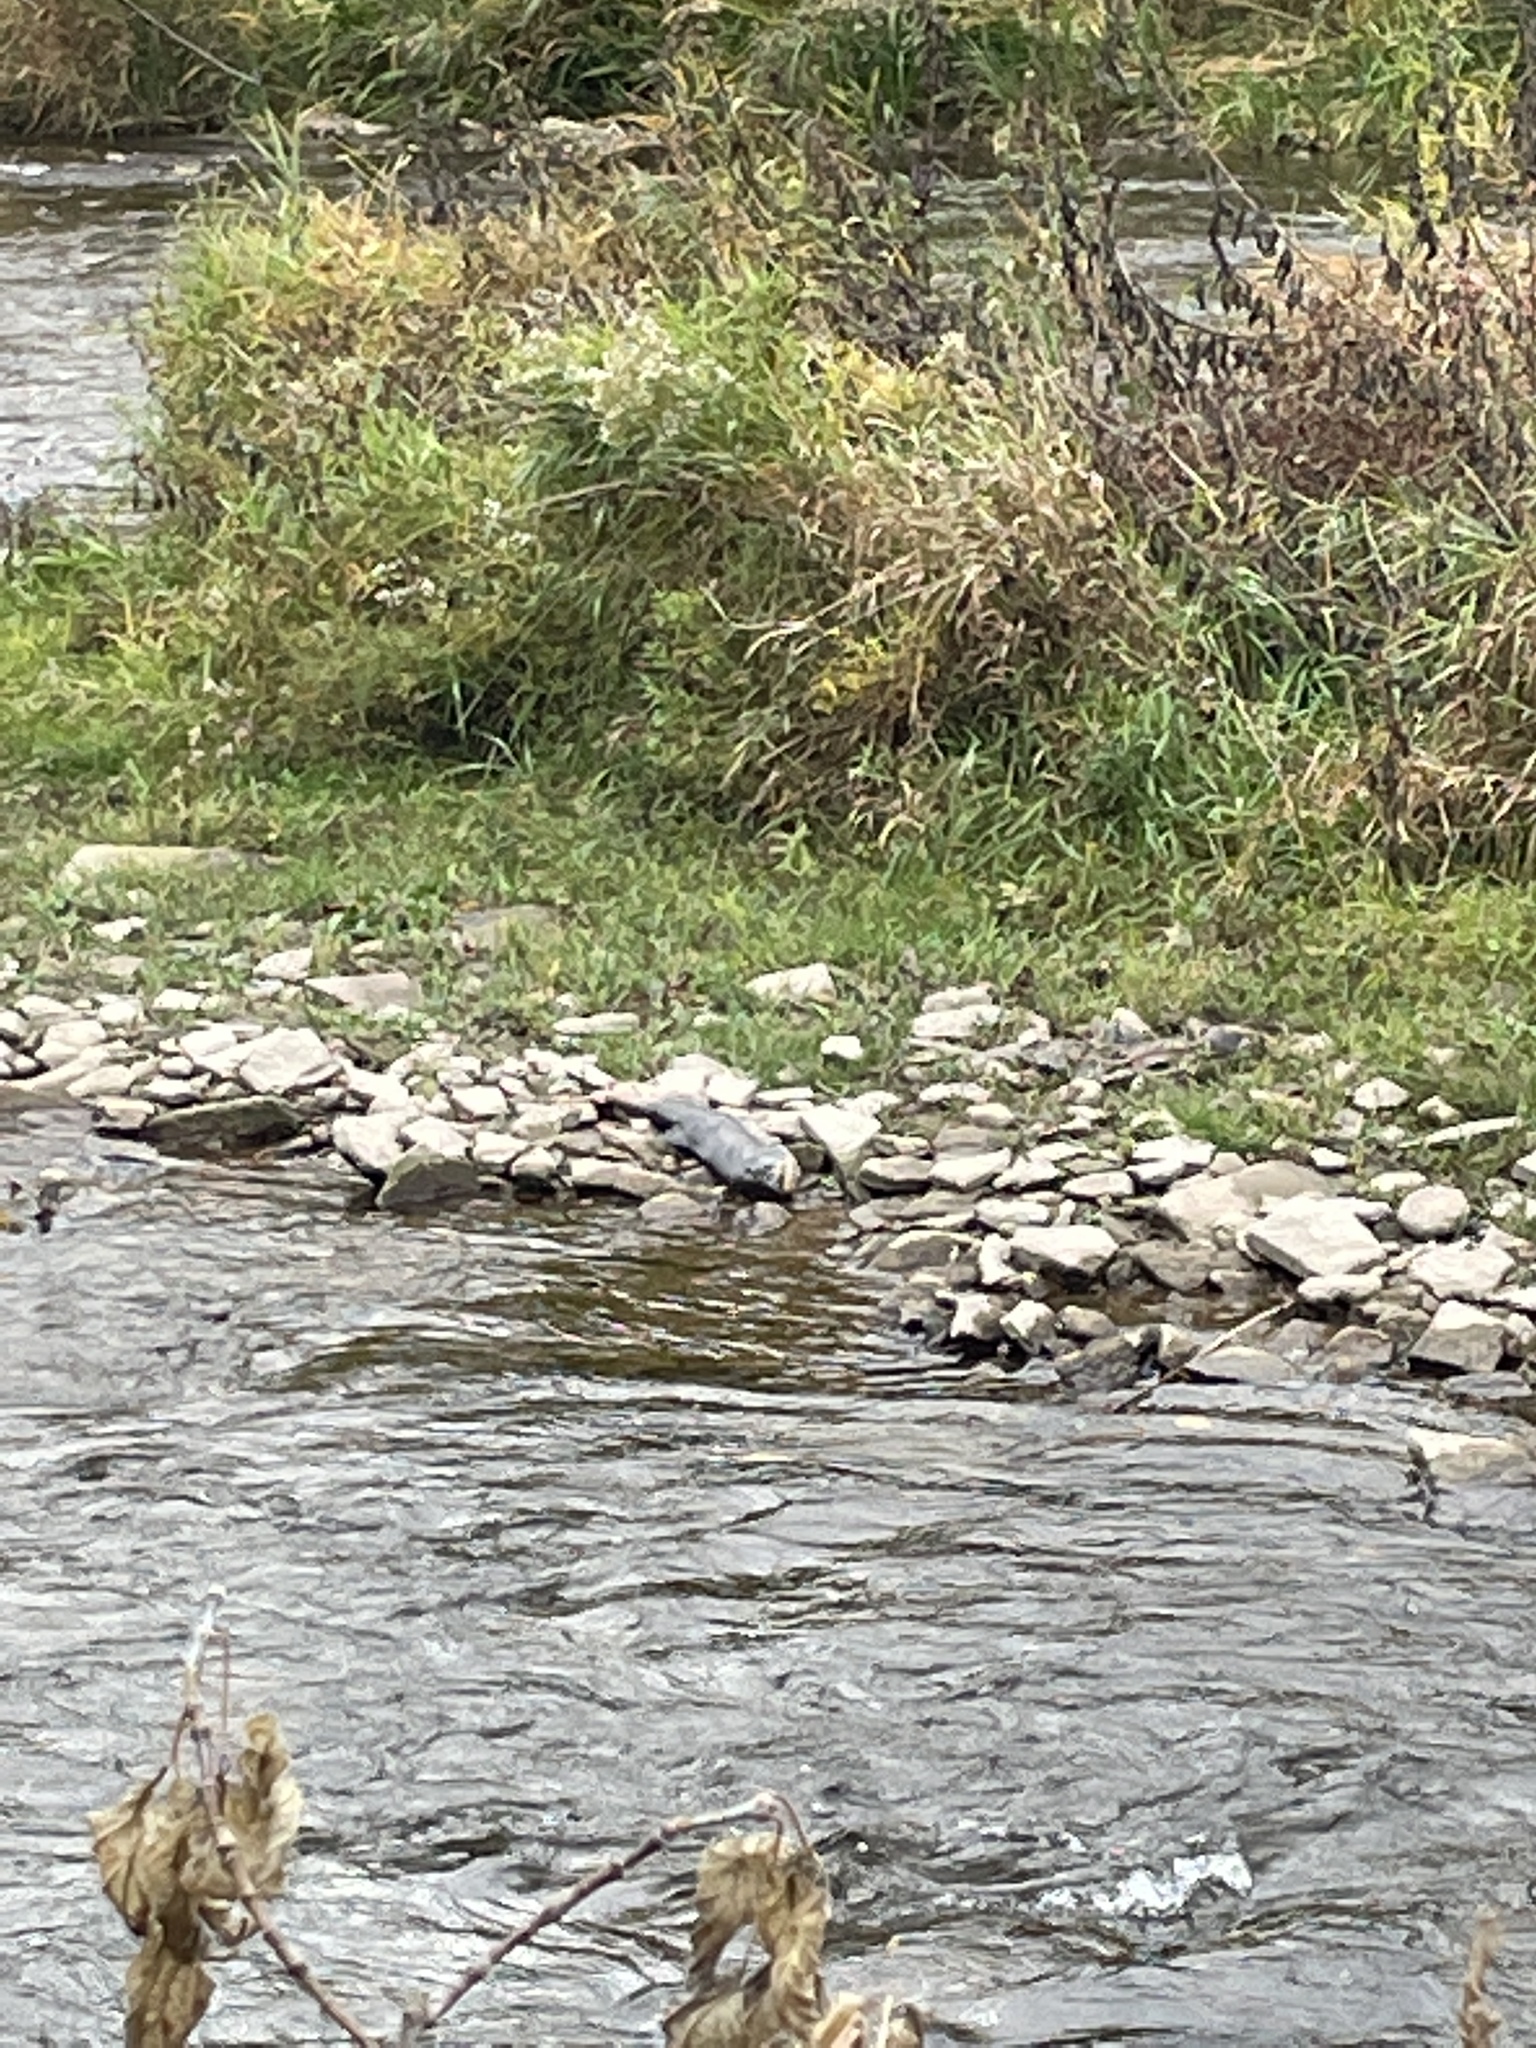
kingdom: Animalia
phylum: Chordata
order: Salmoniformes
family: Salmonidae
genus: Oncorhynchus
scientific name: Oncorhynchus tshawytscha
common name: Chinook salmon
